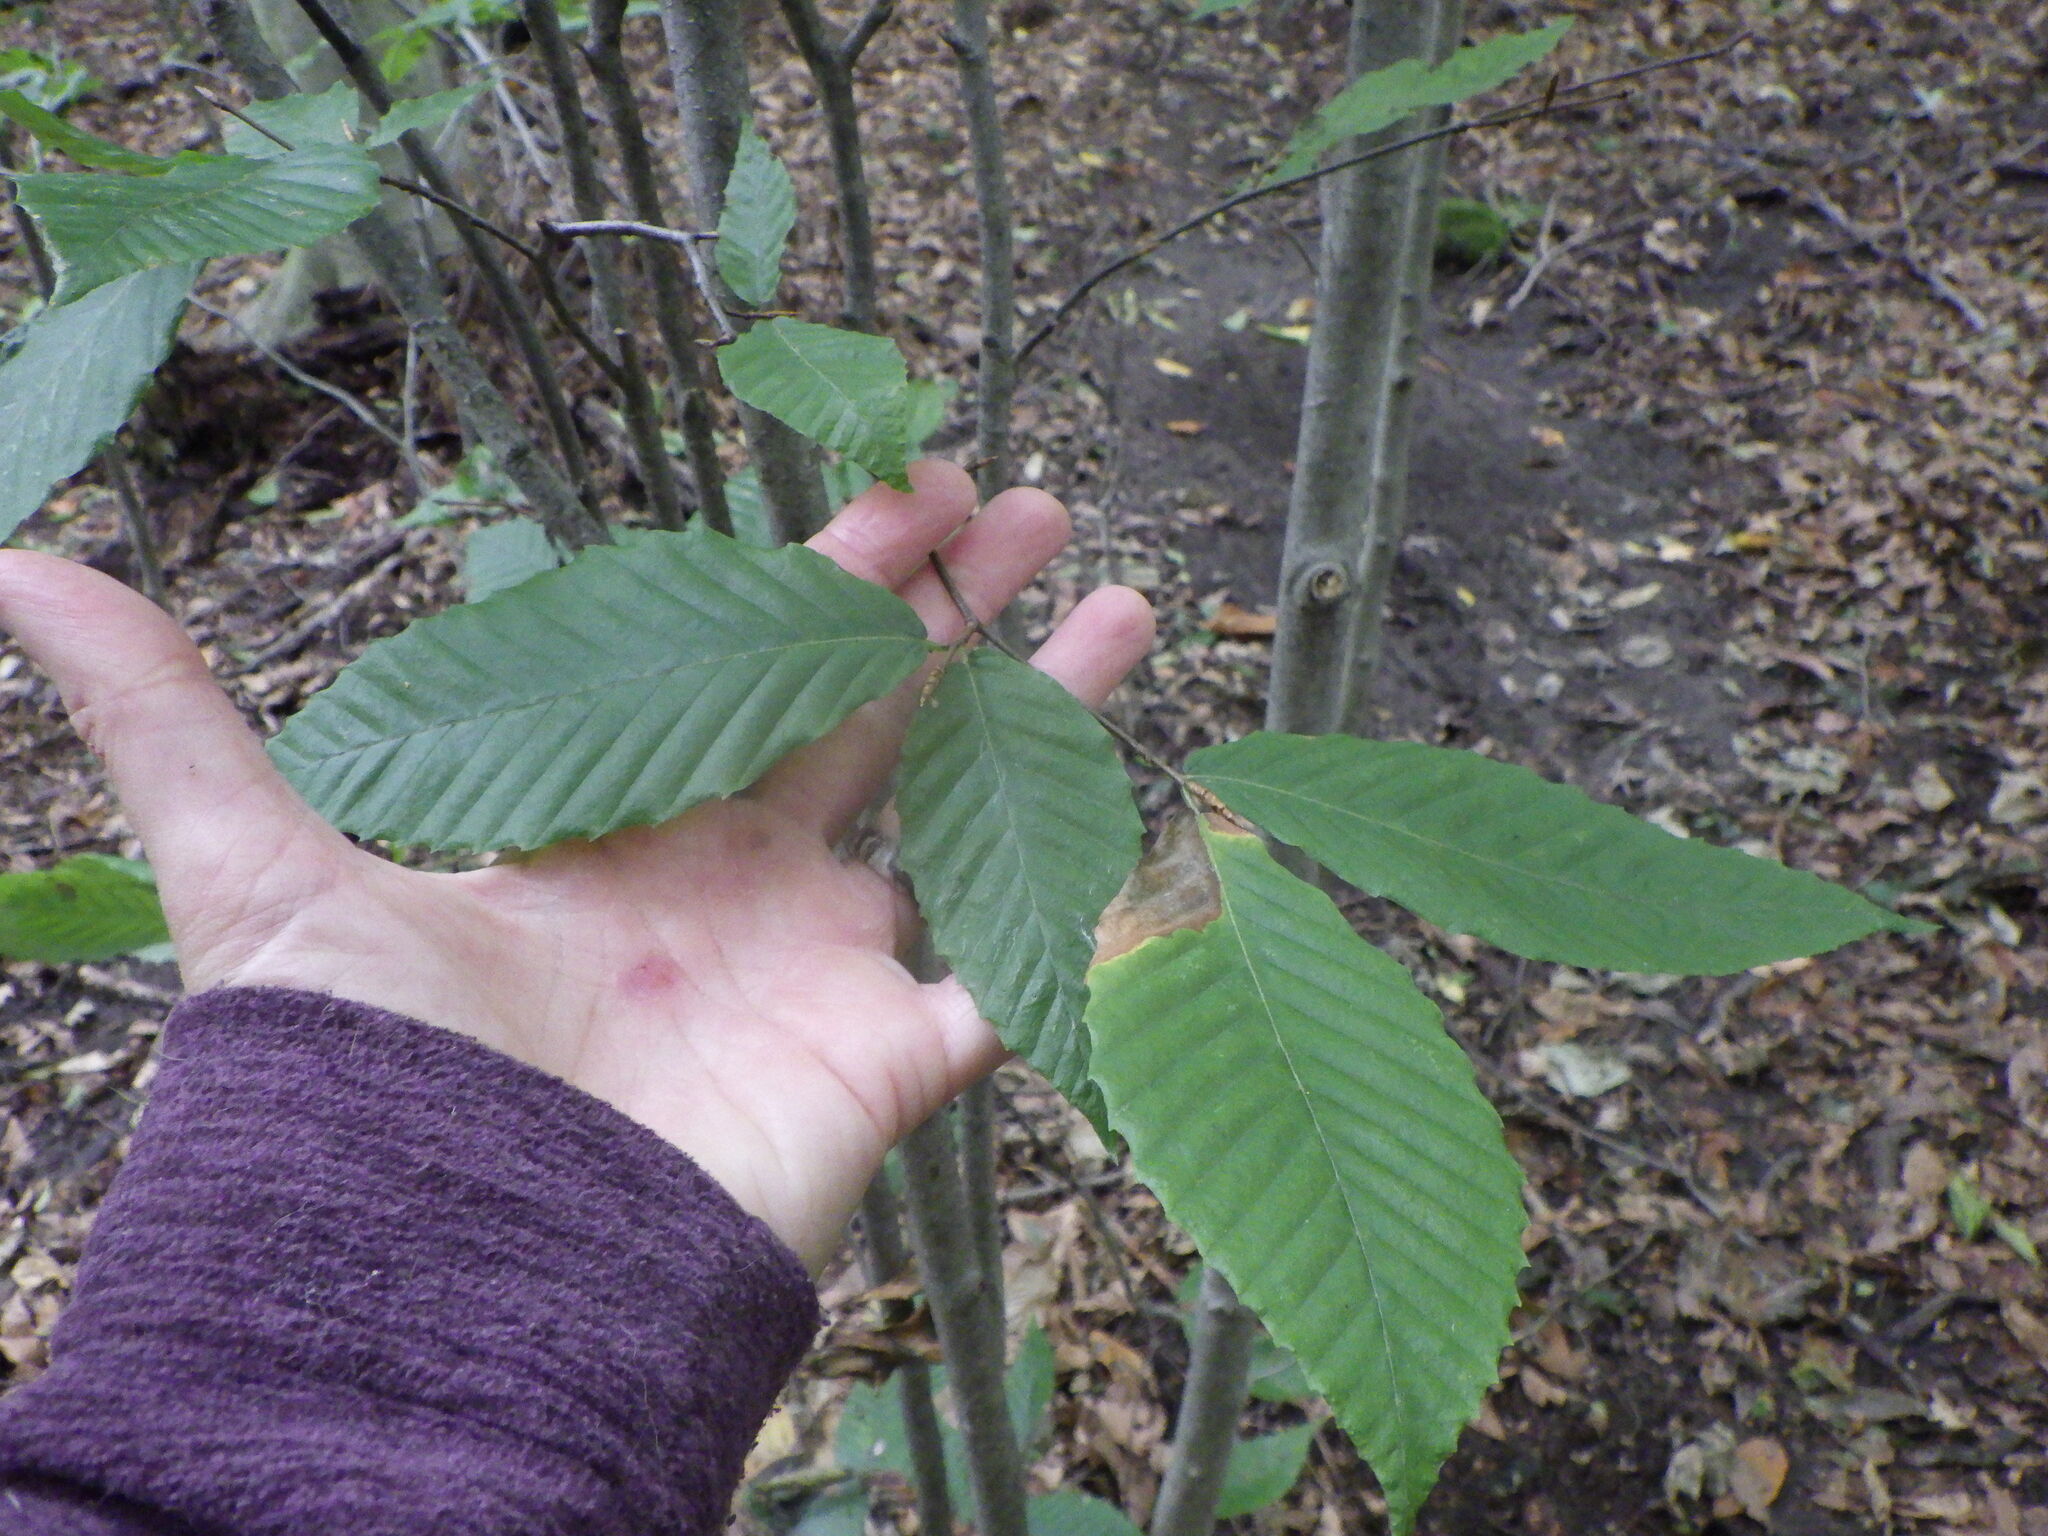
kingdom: Plantae
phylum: Tracheophyta
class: Magnoliopsida
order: Fagales
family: Fagaceae
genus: Fagus
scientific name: Fagus grandifolia
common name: American beech
